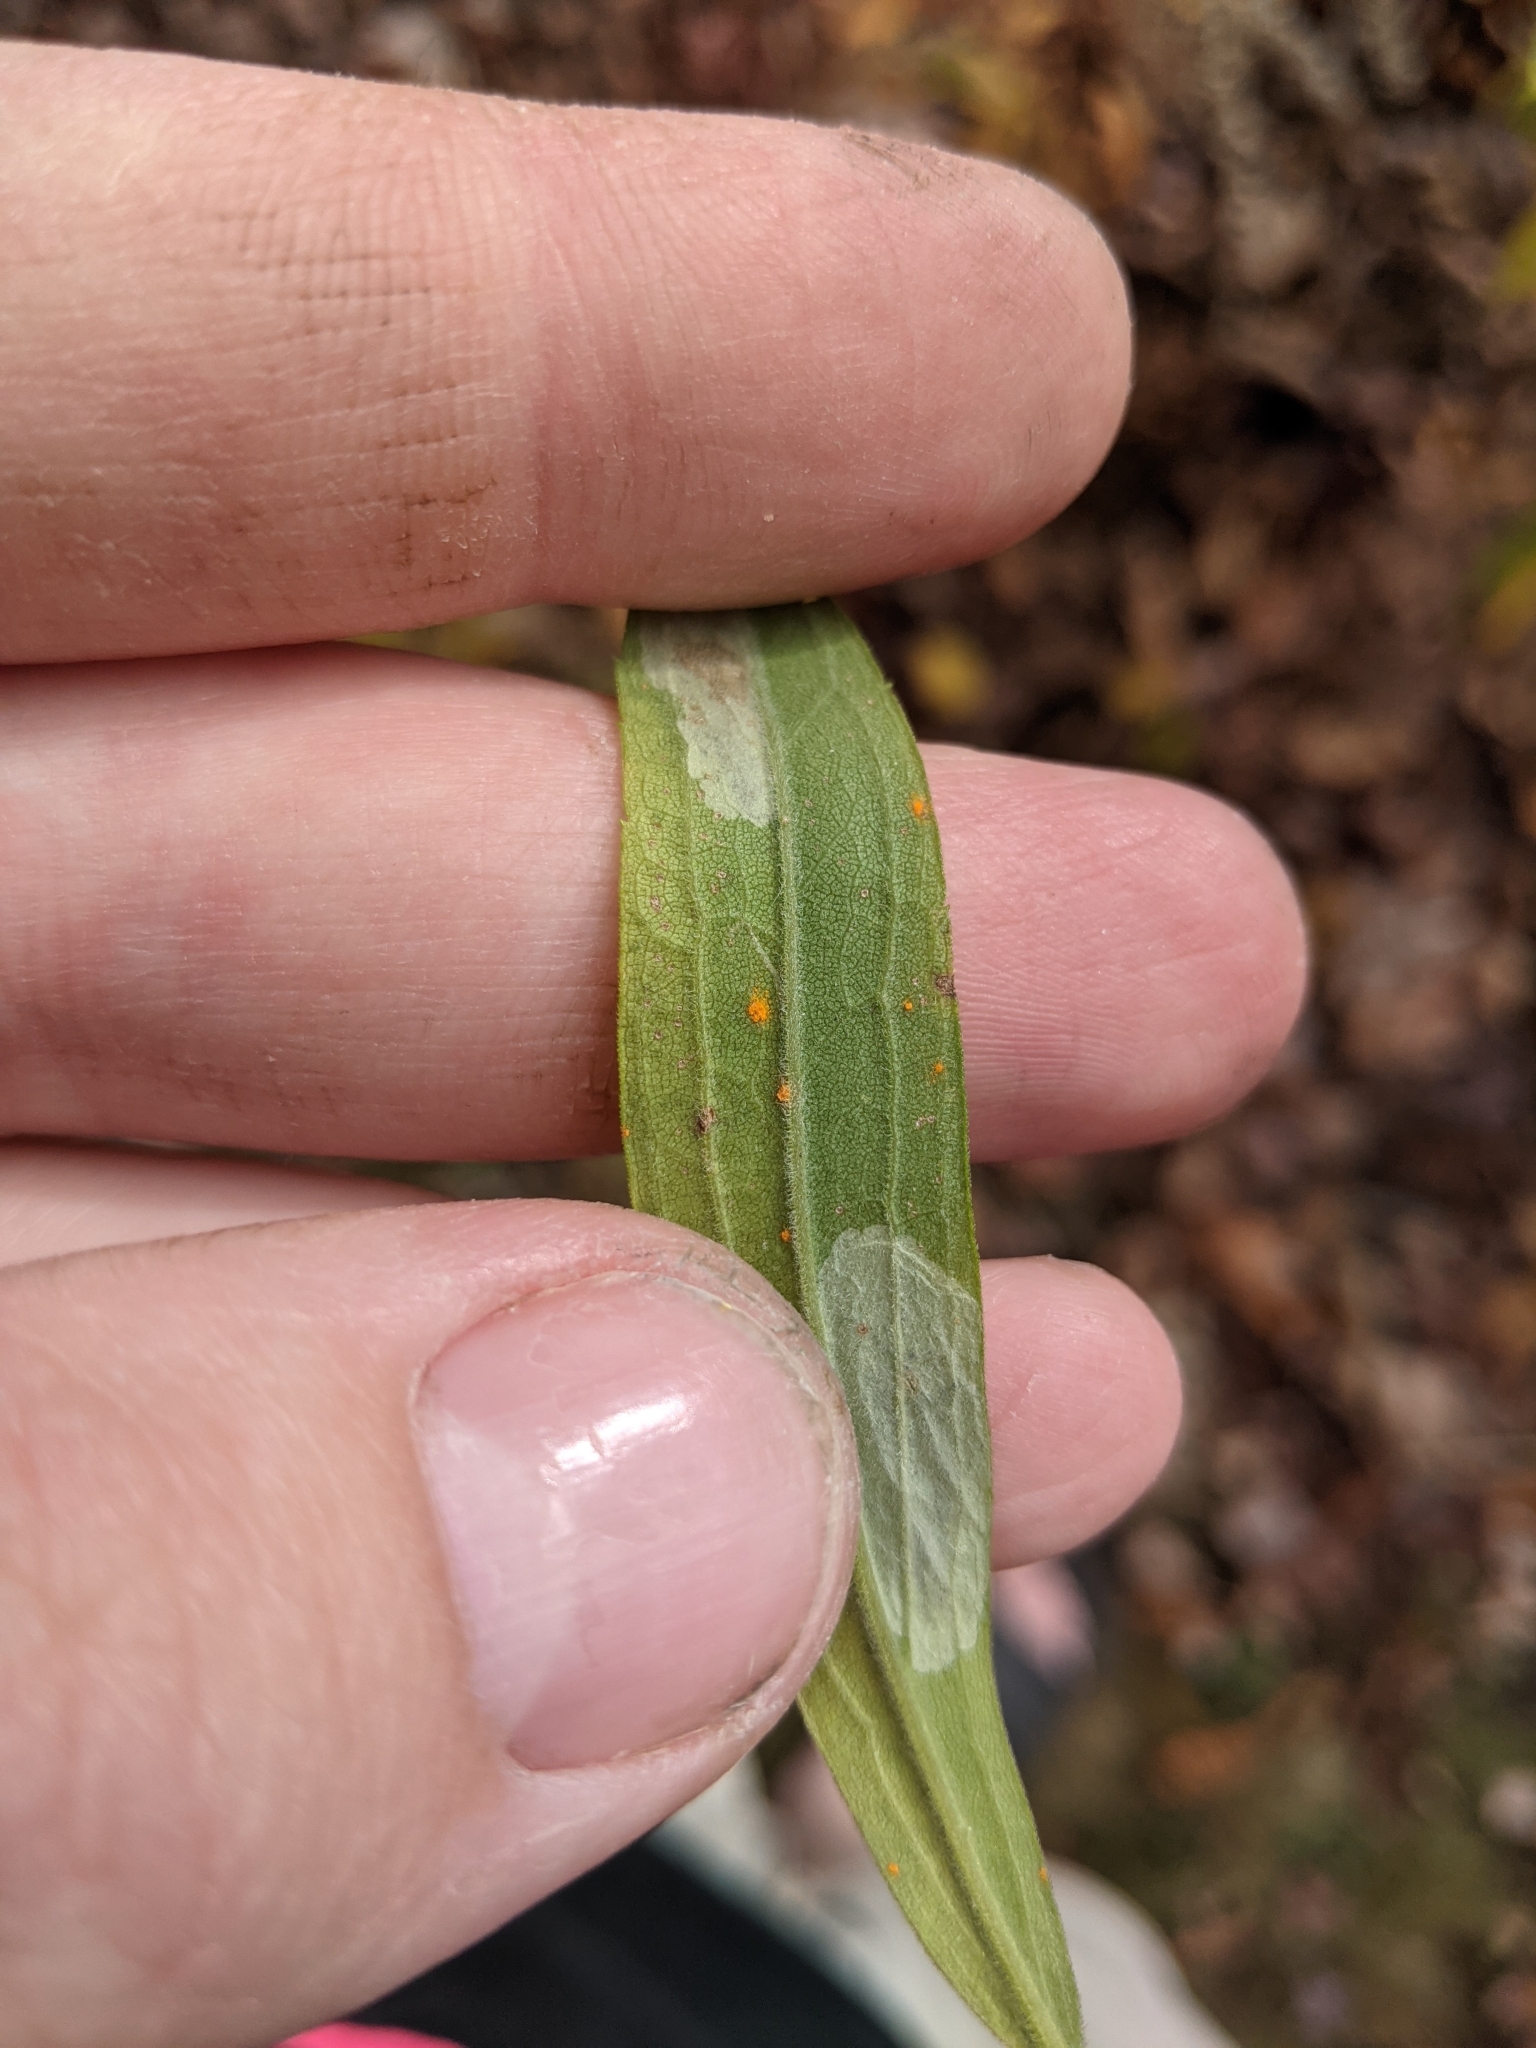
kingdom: Fungi
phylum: Basidiomycota
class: Pucciniomycetes
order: Pucciniales
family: Coleosporiaceae
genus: Coleosporium
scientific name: Coleosporium asterum
